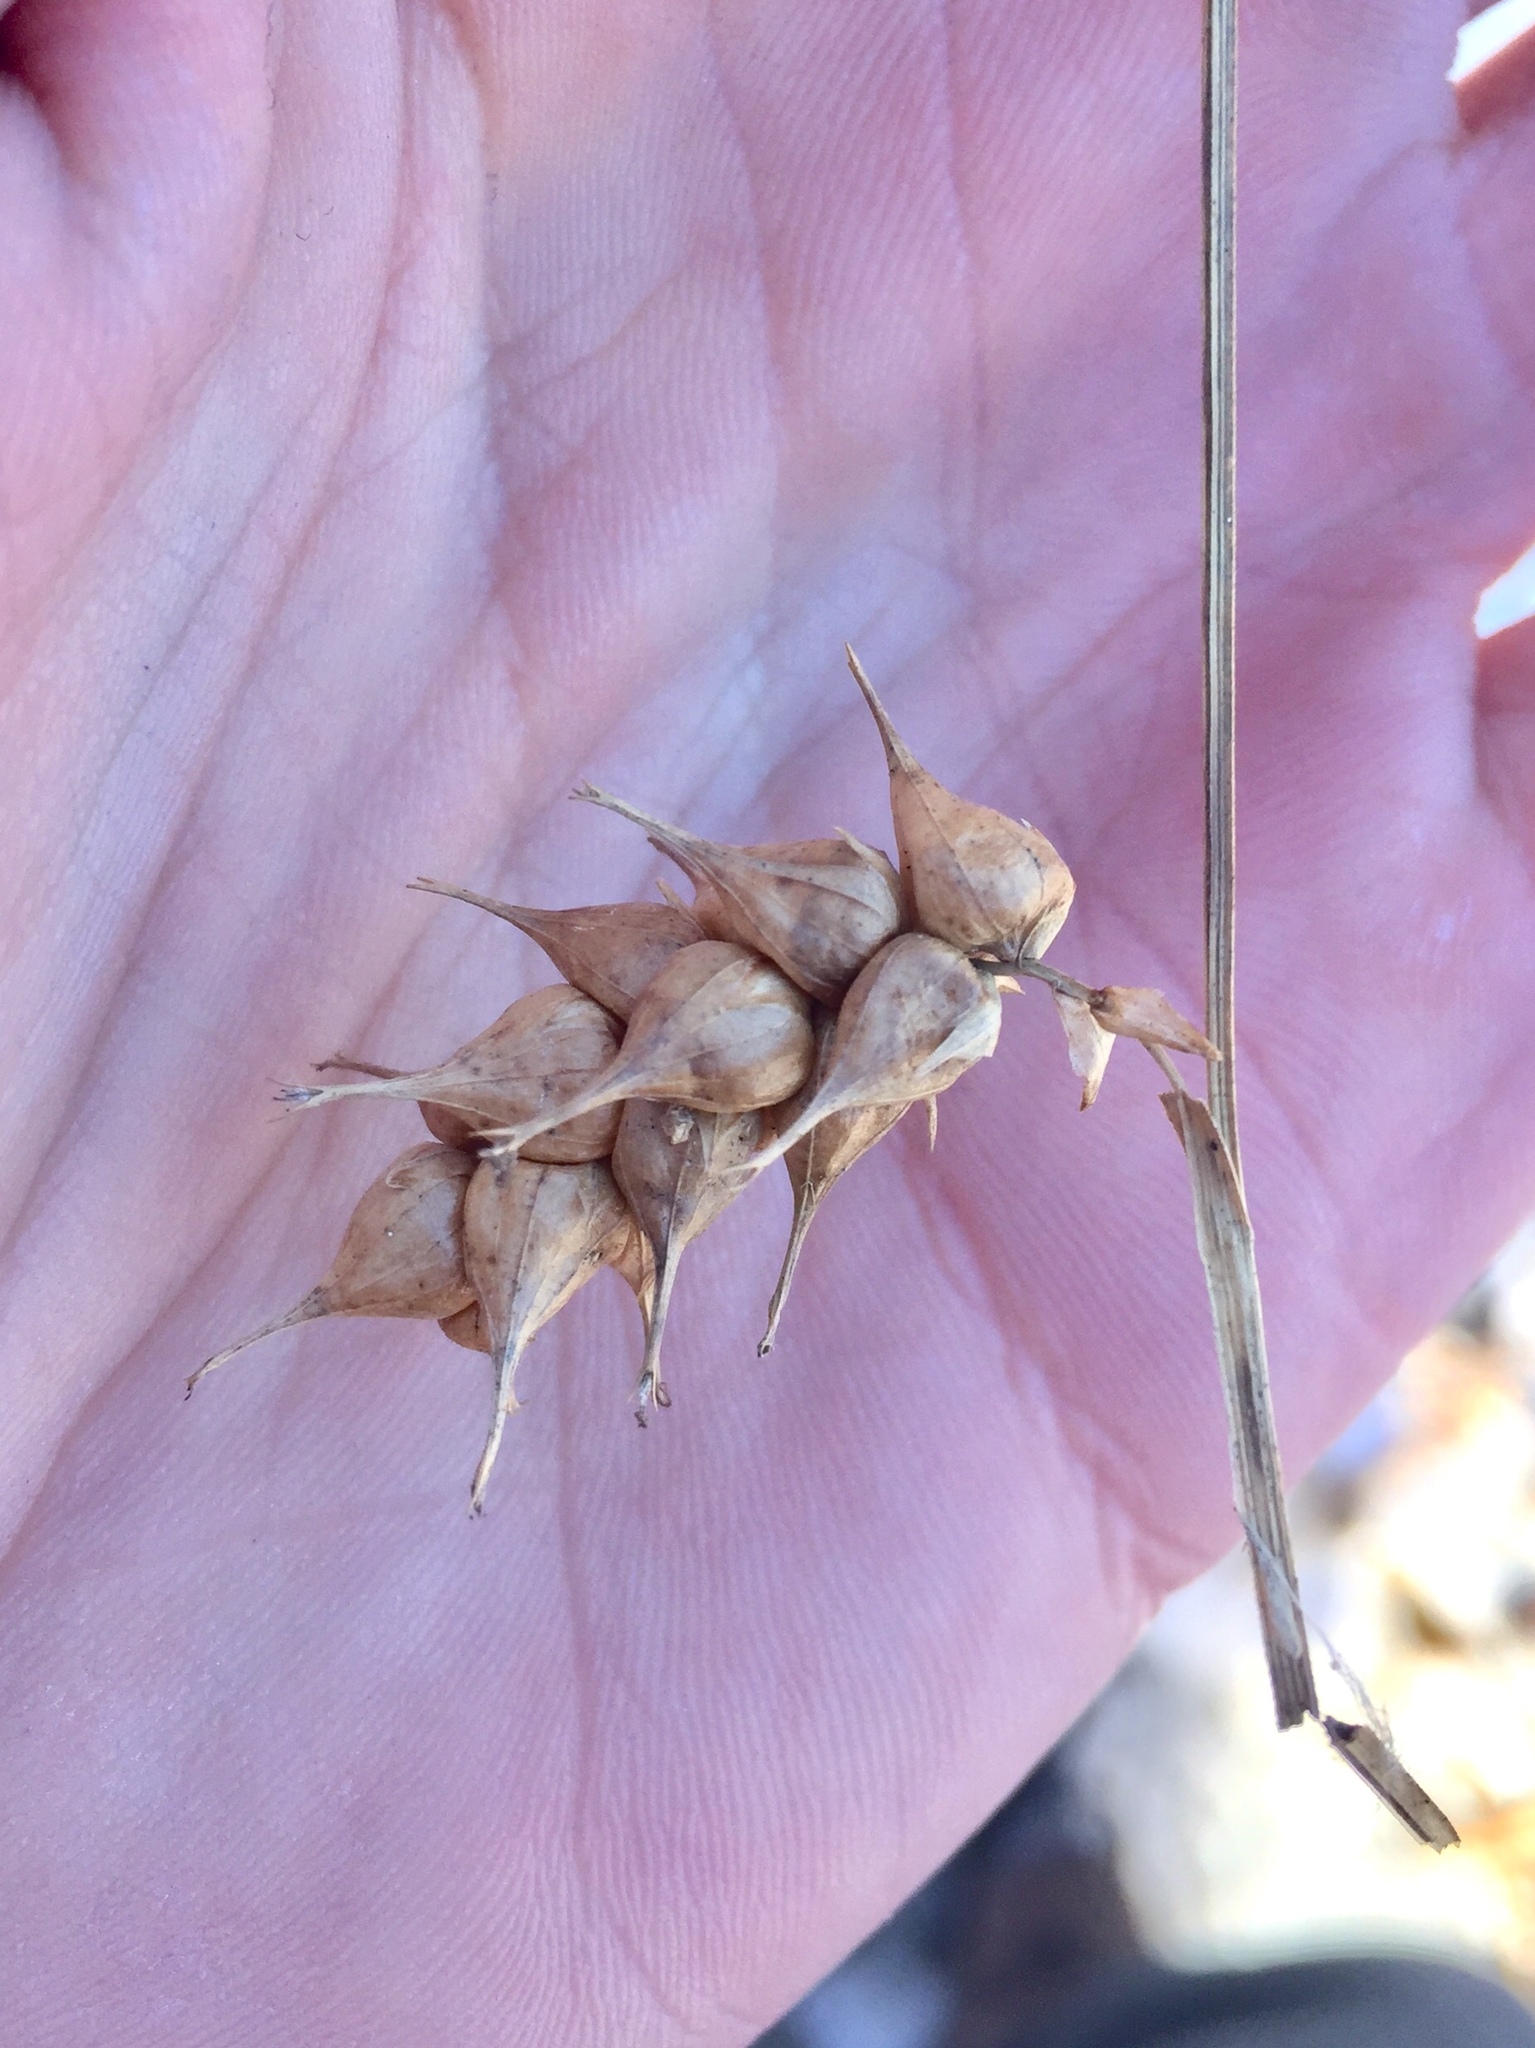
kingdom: Plantae
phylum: Tracheophyta
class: Liliopsida
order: Poales
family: Cyperaceae
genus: Carex
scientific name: Carex tuckermanii
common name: Tuckerman's sedge
